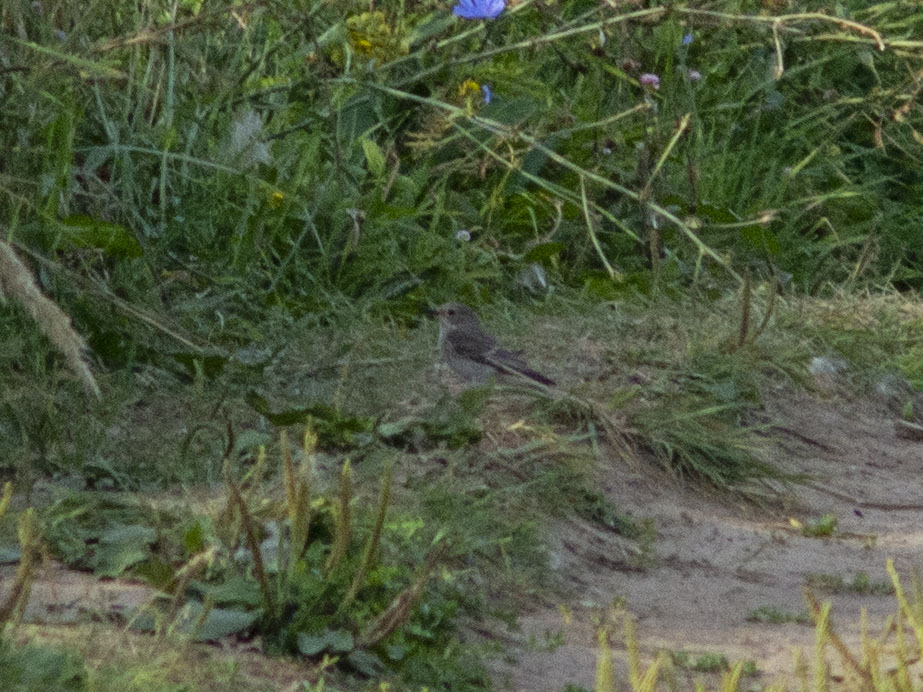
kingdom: Animalia
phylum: Chordata
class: Aves
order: Passeriformes
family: Muscicapidae
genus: Muscicapa
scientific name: Muscicapa striata
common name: Spotted flycatcher
